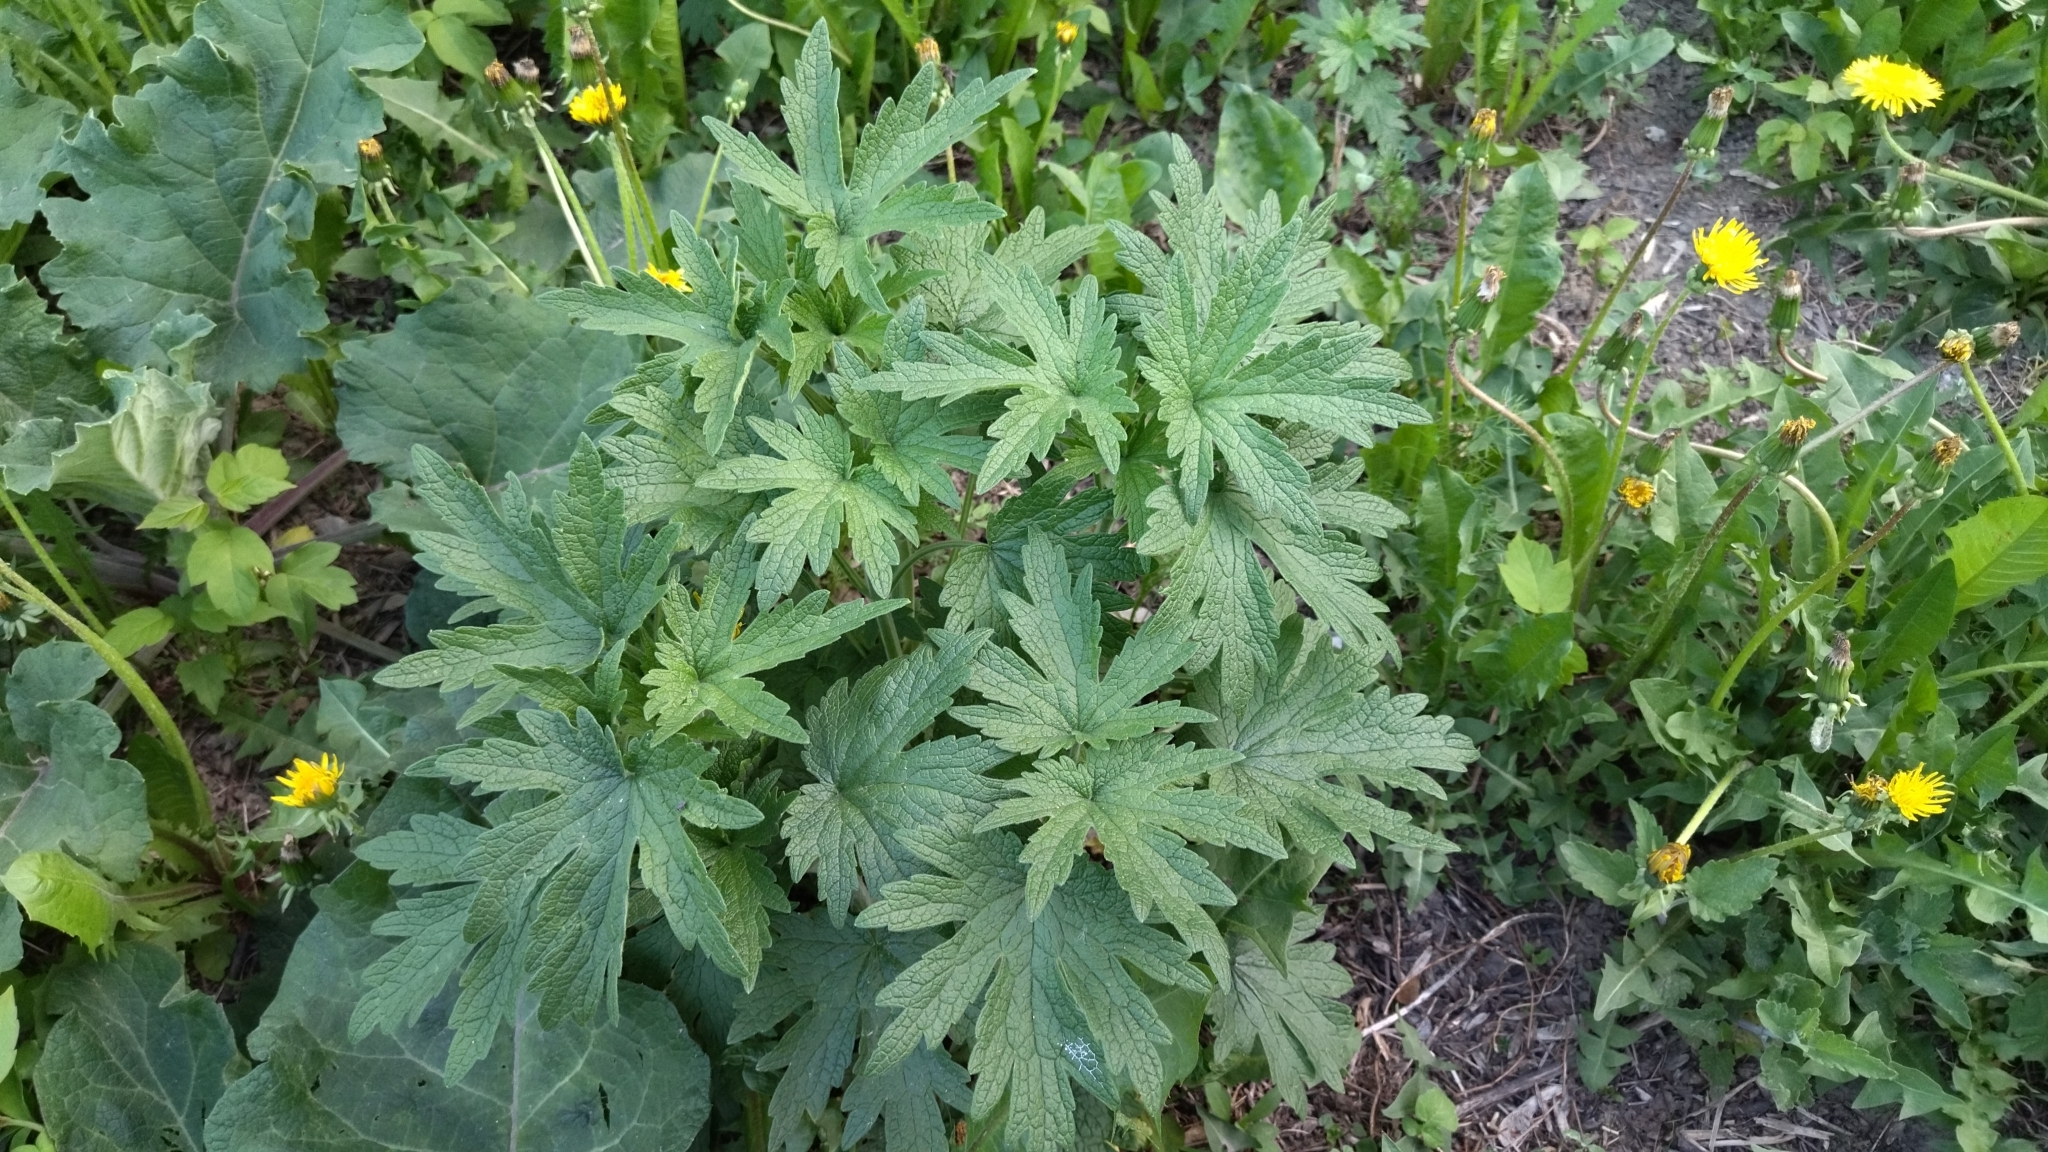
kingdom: Plantae
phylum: Tracheophyta
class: Magnoliopsida
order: Lamiales
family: Lamiaceae
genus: Leonurus
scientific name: Leonurus quinquelobatus
